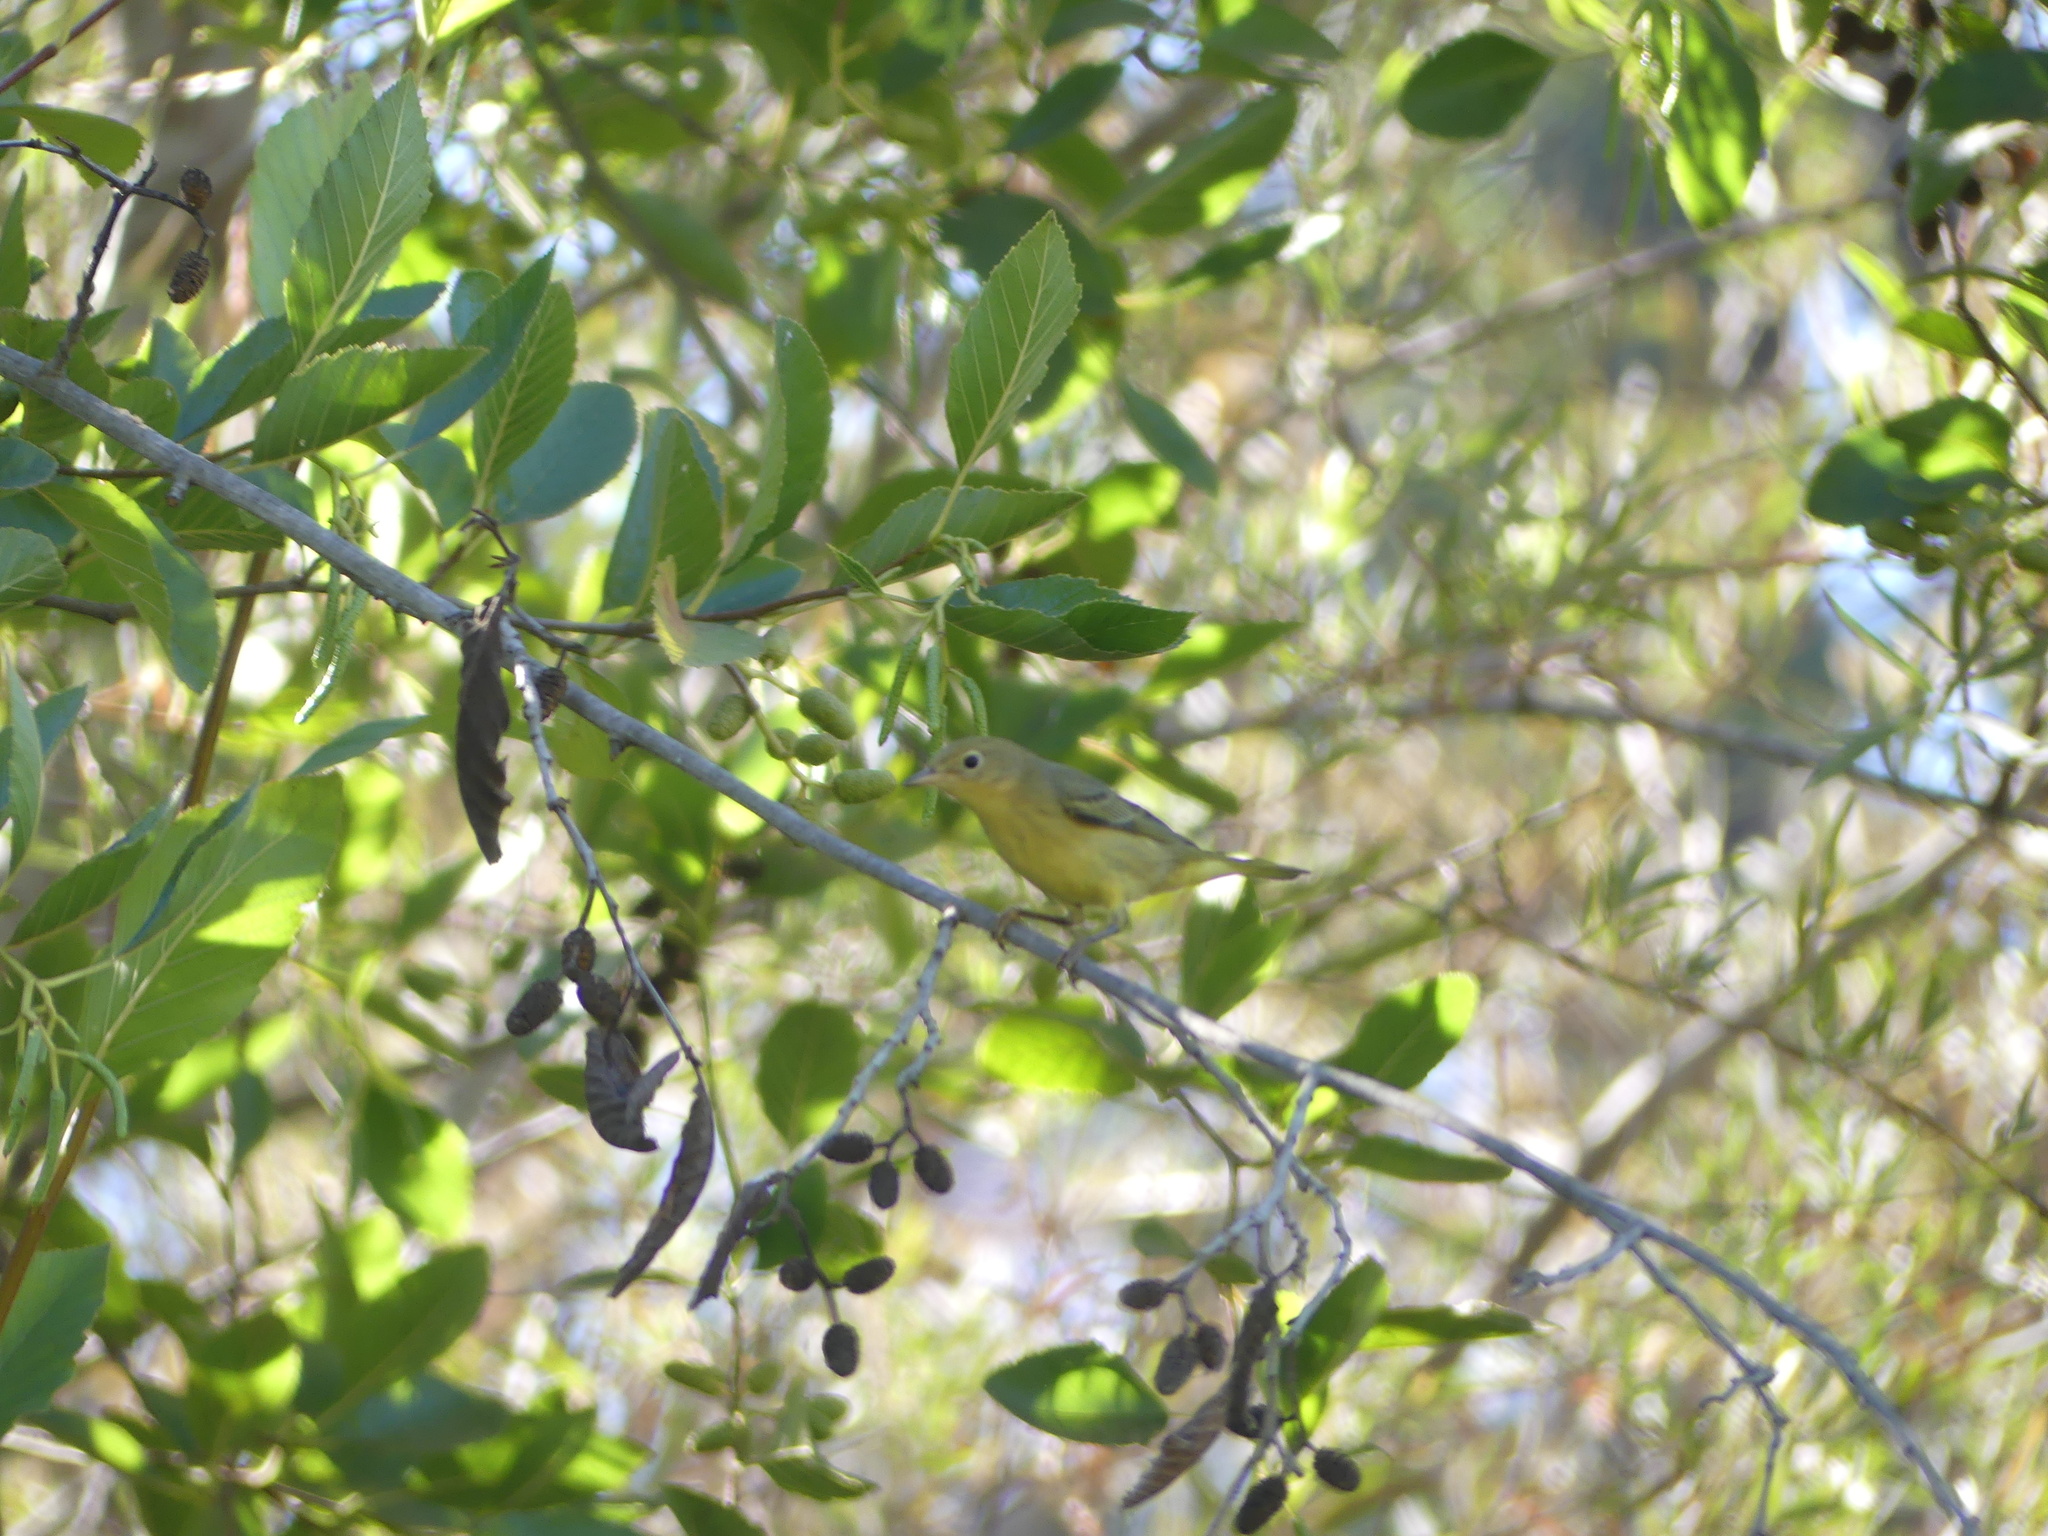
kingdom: Animalia
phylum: Chordata
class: Aves
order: Passeriformes
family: Parulidae
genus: Setophaga
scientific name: Setophaga petechia
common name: Yellow warbler
